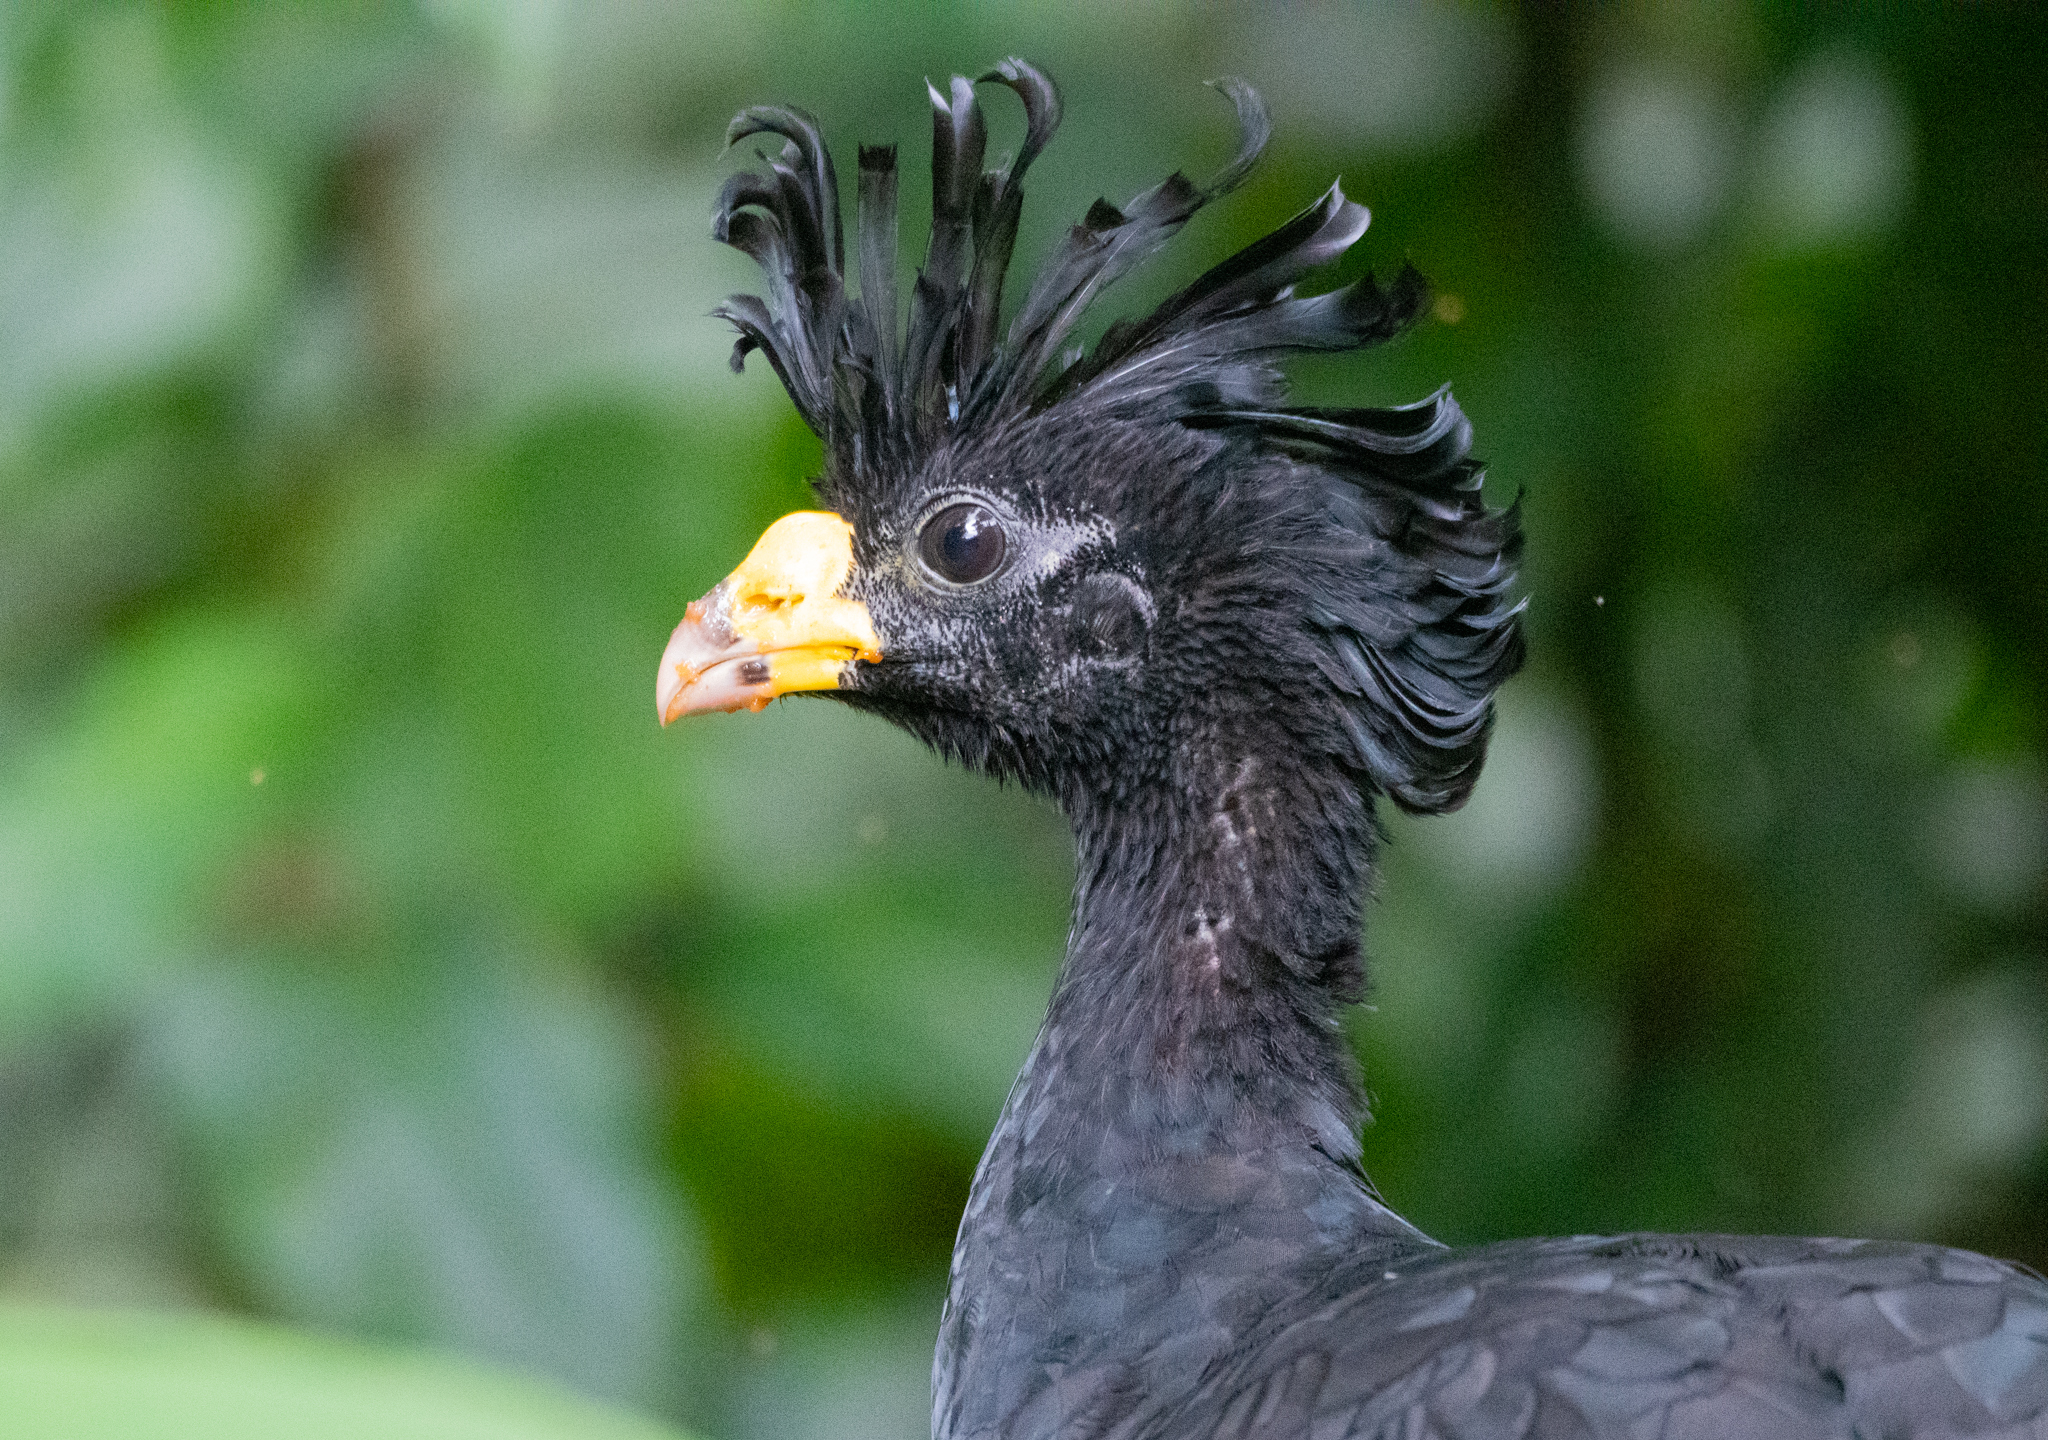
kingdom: Animalia
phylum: Chordata
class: Aves
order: Galliformes
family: Cracidae
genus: Crax
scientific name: Crax rubra
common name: Great curassow
